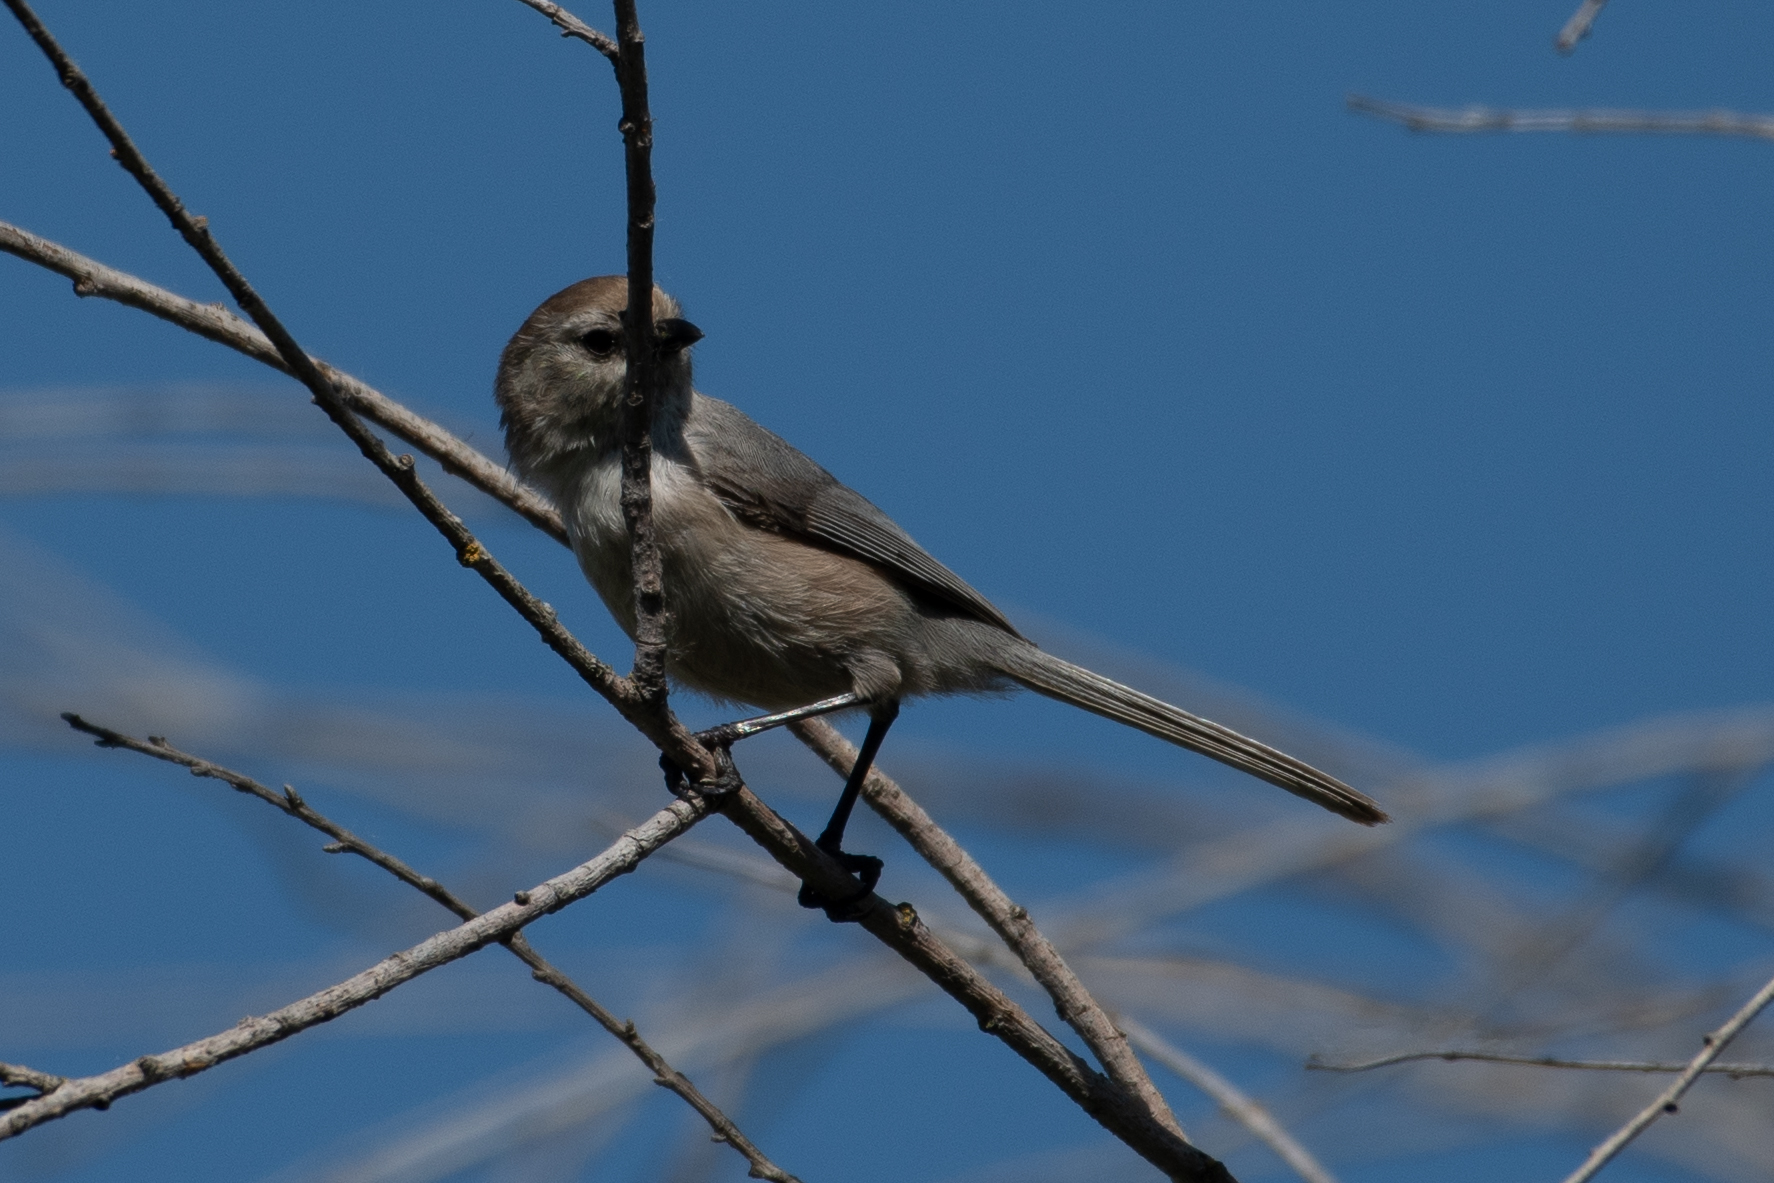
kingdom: Animalia
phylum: Chordata
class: Aves
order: Passeriformes
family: Aegithalidae
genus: Psaltriparus
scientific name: Psaltriparus minimus
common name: American bushtit
